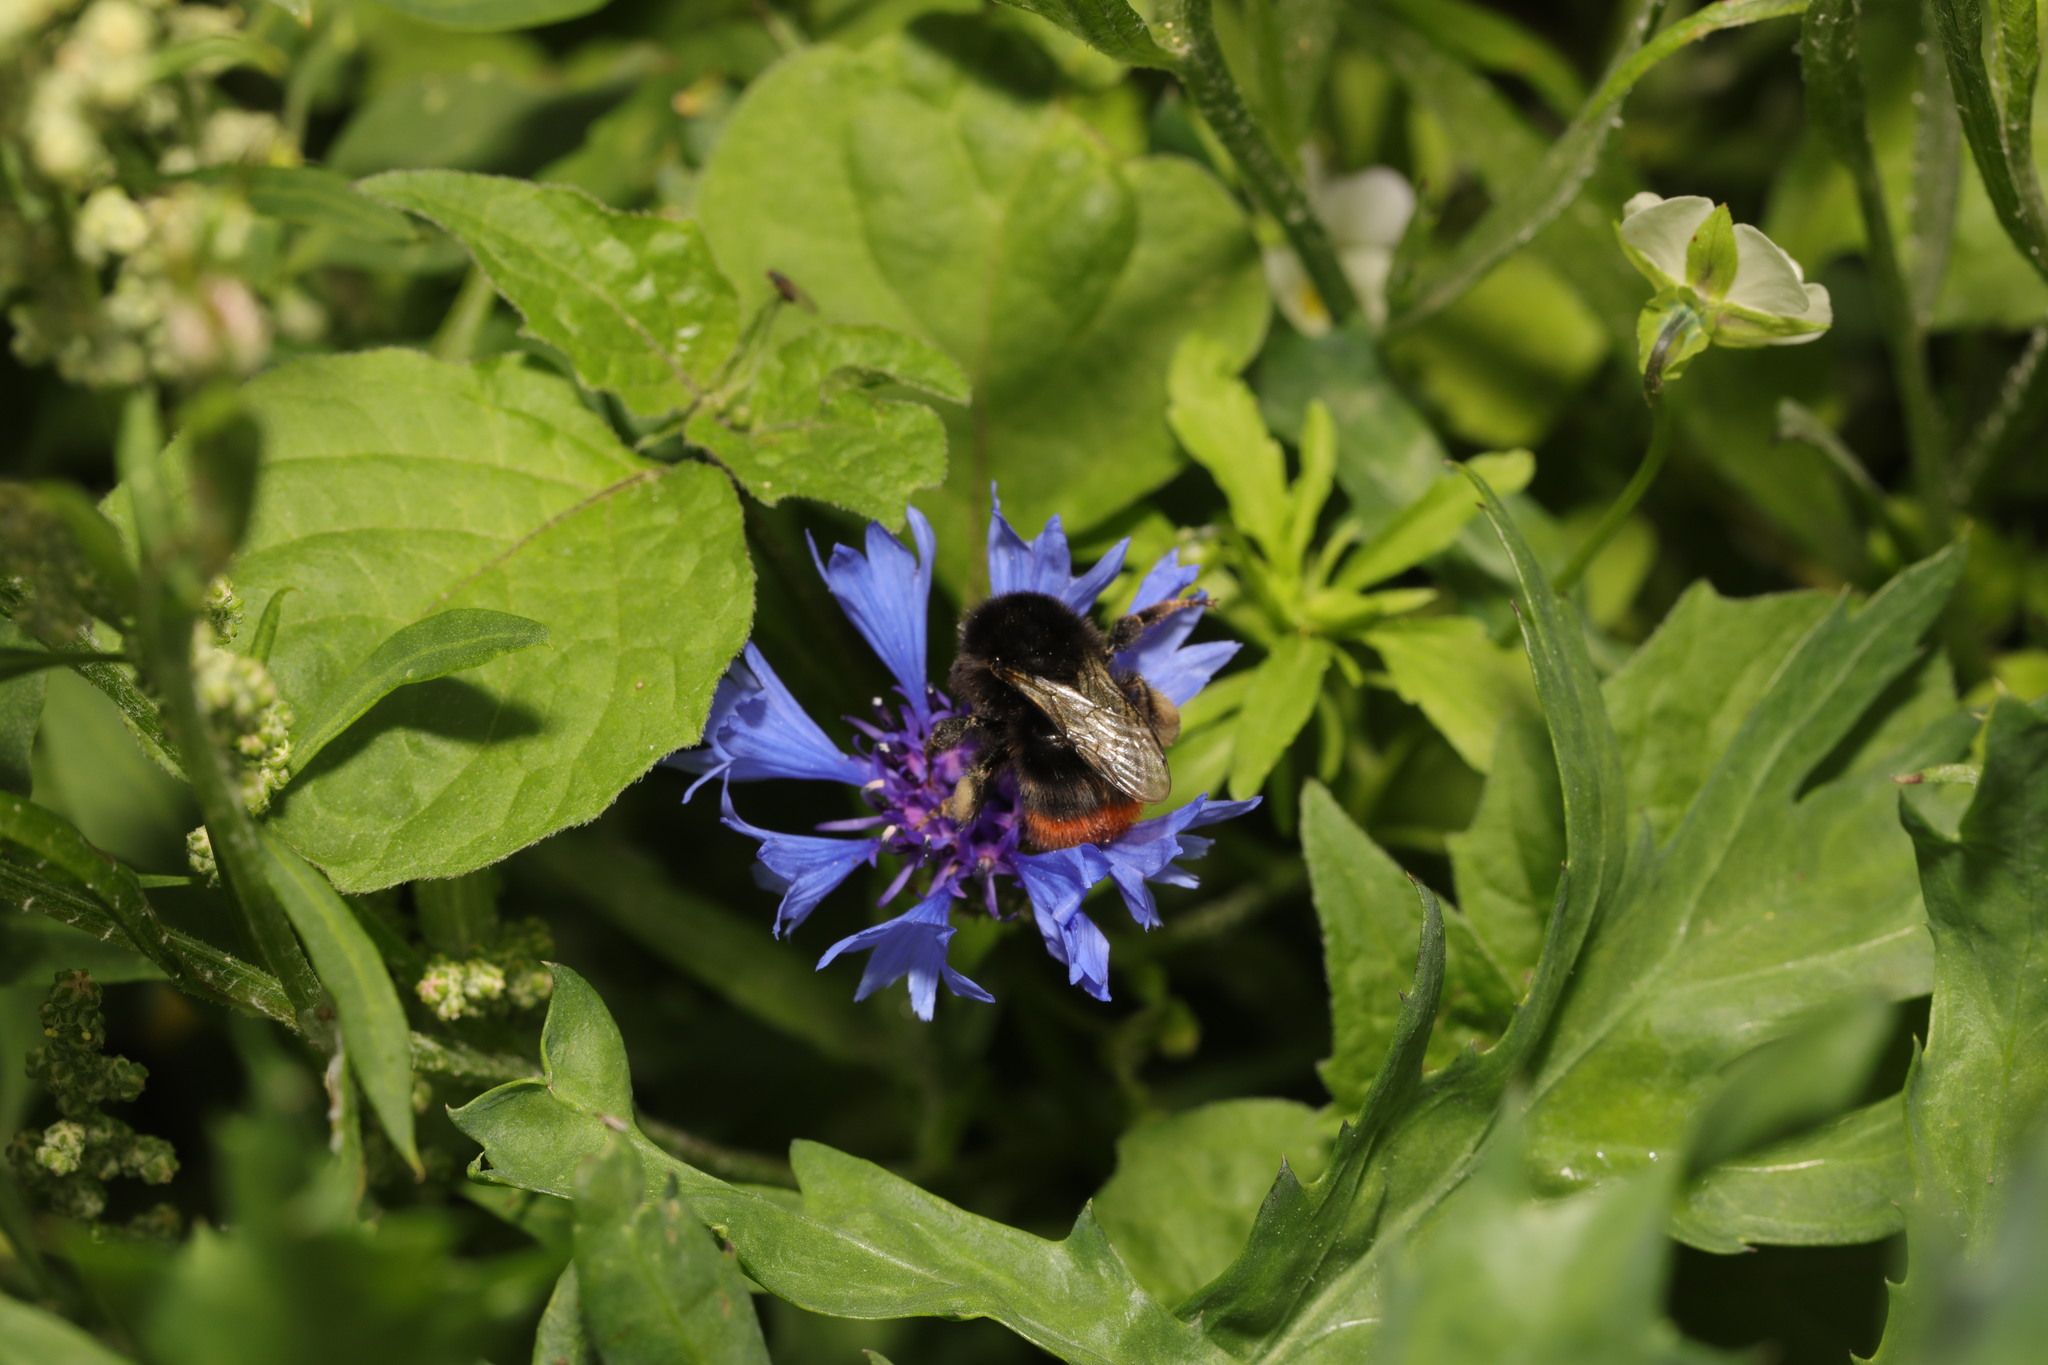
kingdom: Animalia
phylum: Arthropoda
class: Insecta
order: Hymenoptera
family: Apidae
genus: Bombus
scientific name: Bombus lapidarius
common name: Large red-tailed humble-bee
